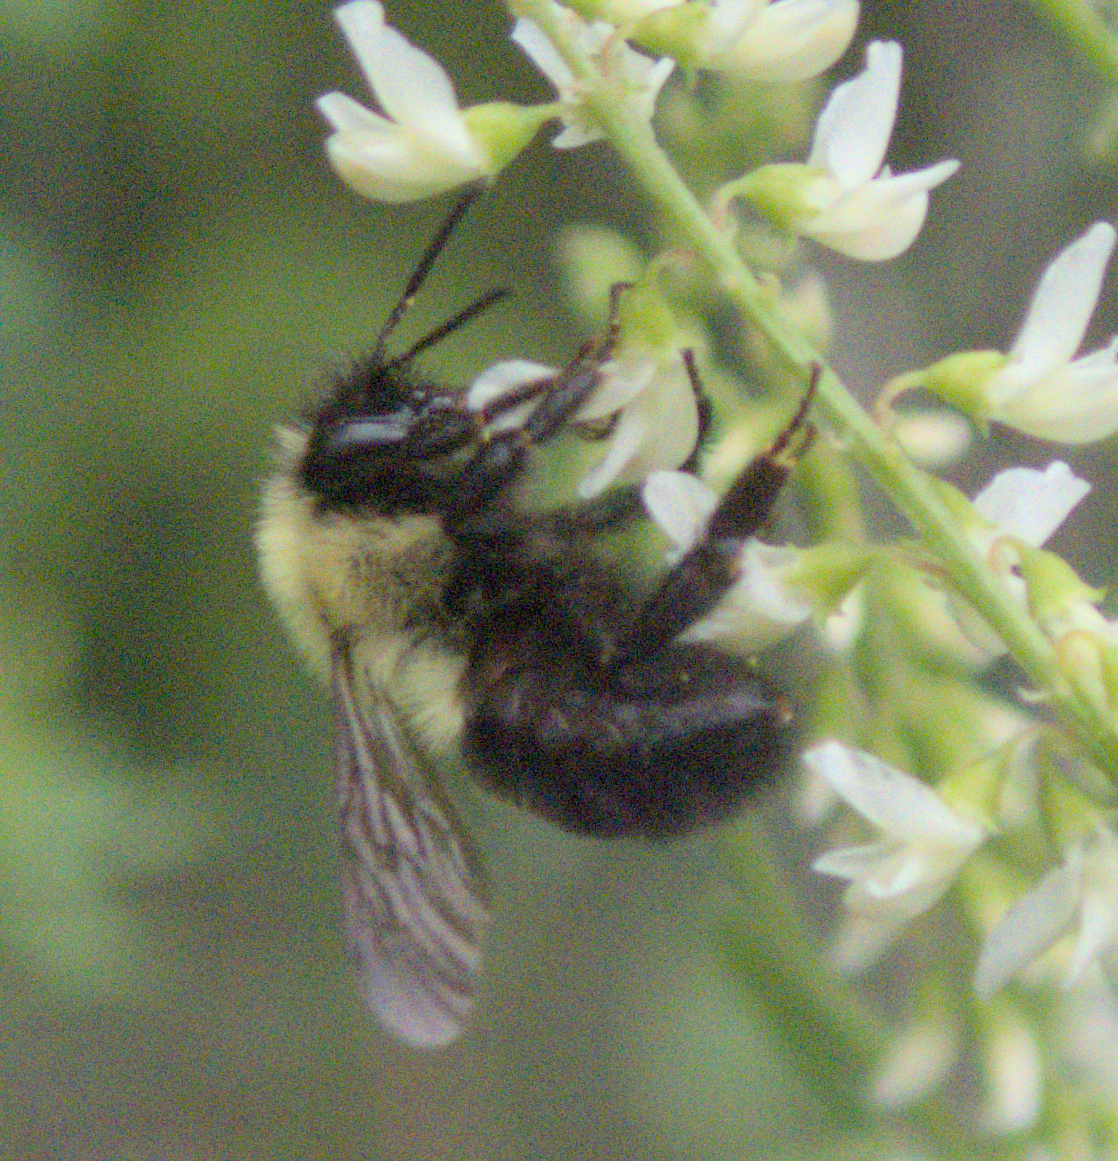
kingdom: Animalia
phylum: Arthropoda
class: Insecta
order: Hymenoptera
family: Apidae
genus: Bombus
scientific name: Bombus bimaculatus
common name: Two-spotted bumble bee
